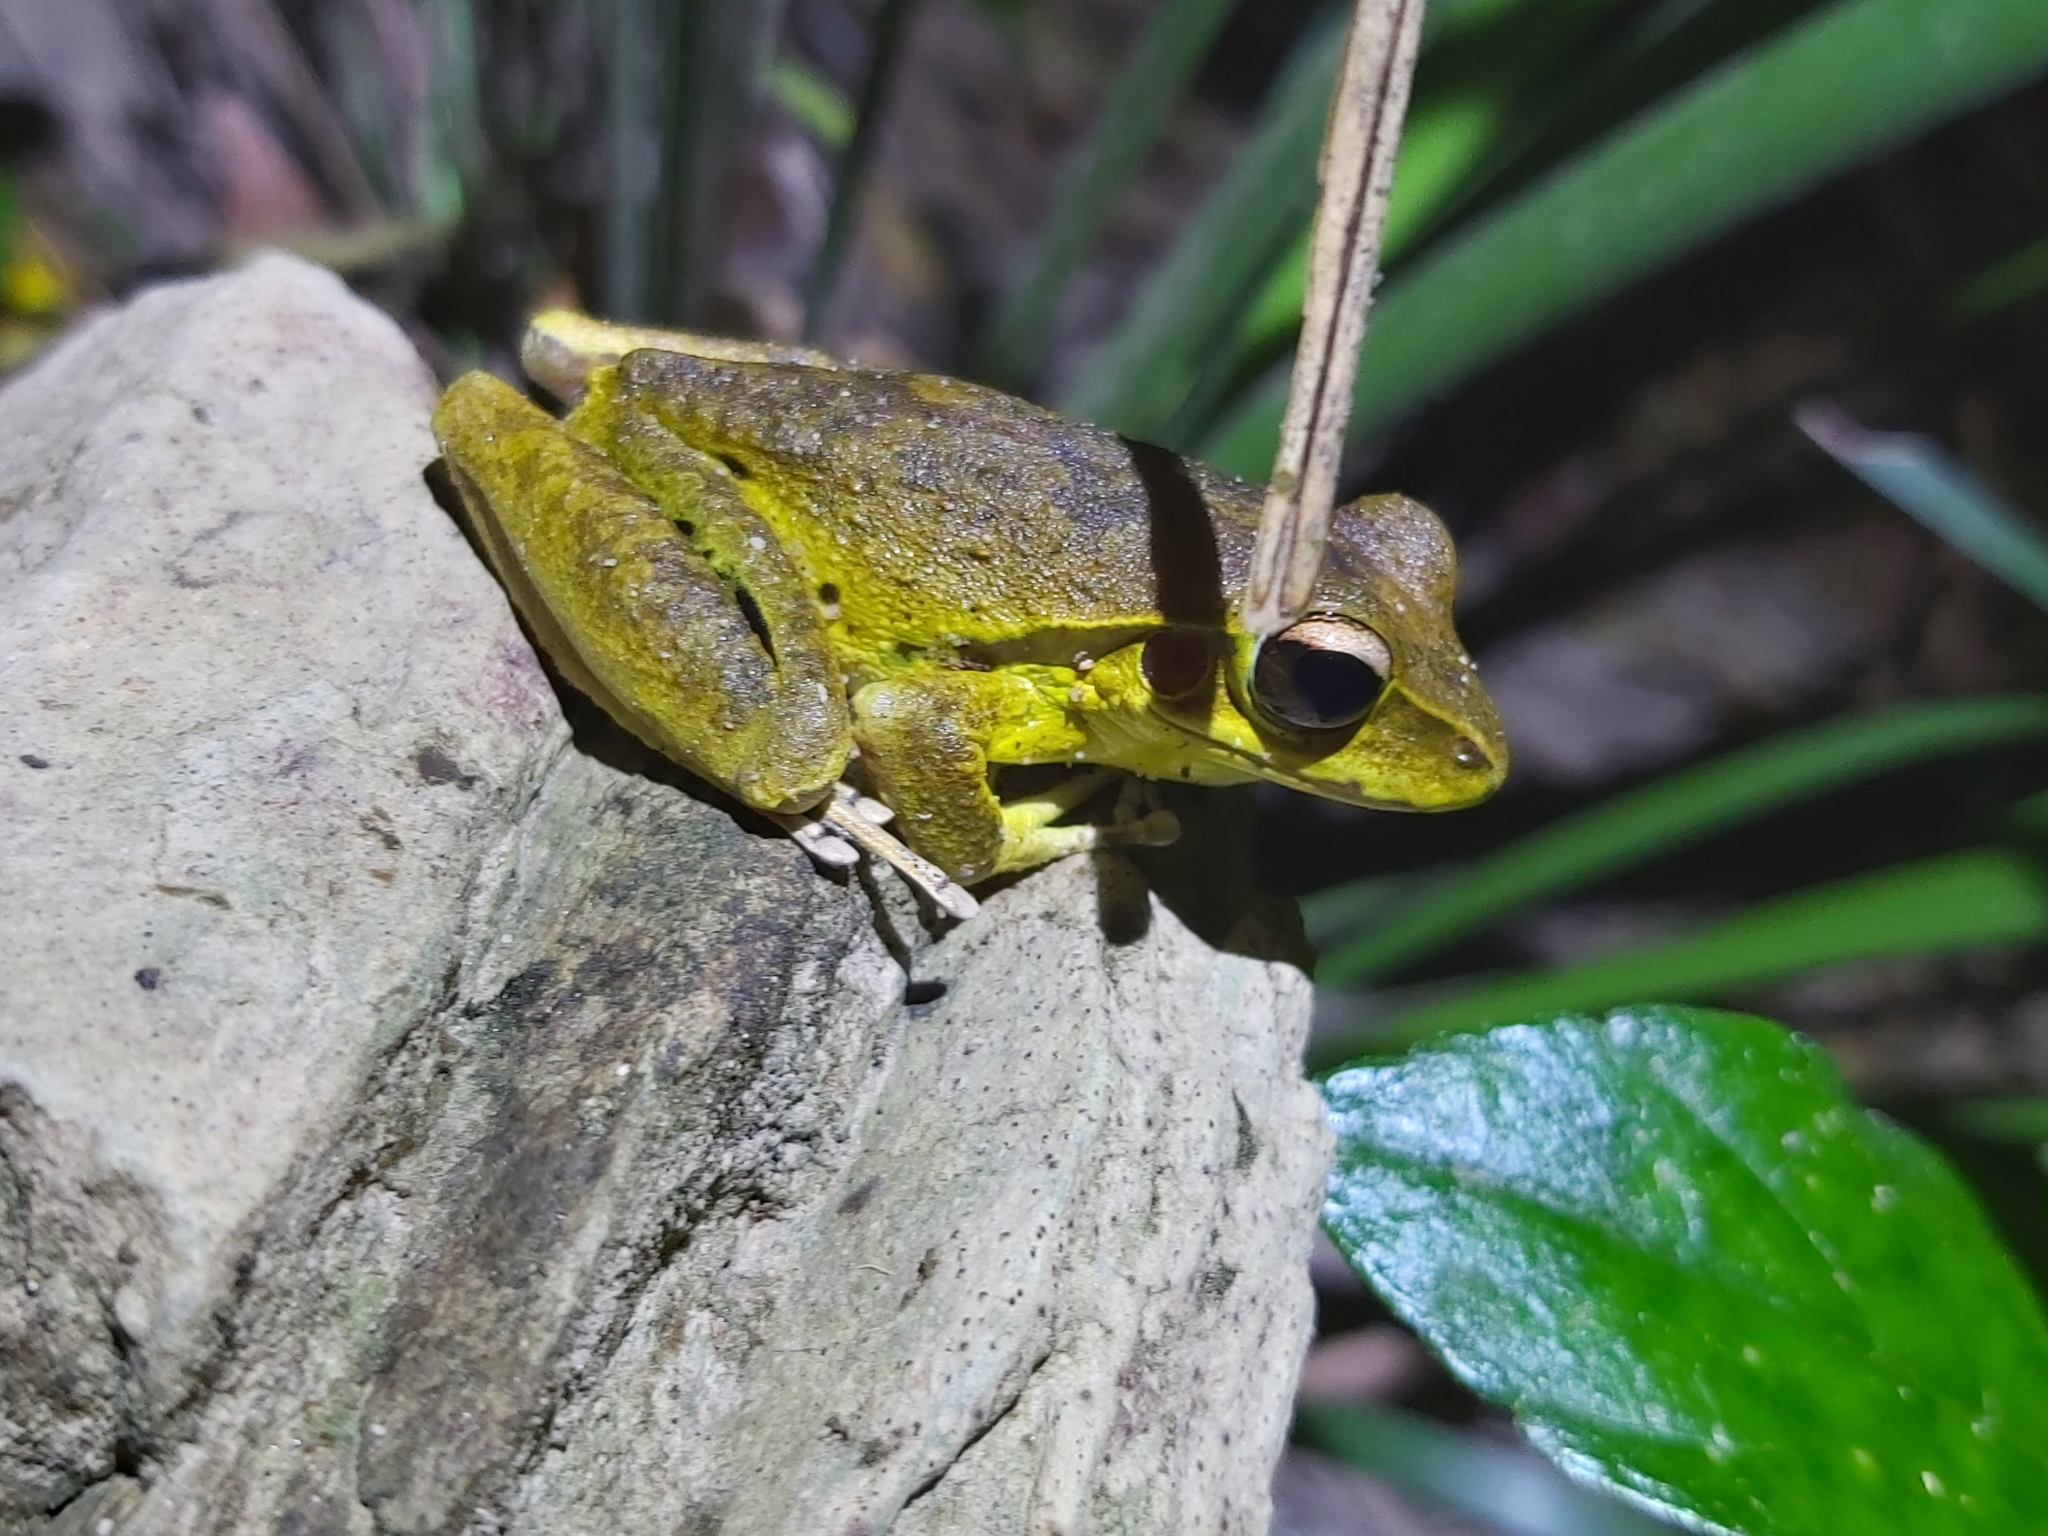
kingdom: Animalia
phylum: Chordata
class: Amphibia
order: Anura
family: Hylidae
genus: Ranoidea
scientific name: Ranoidea
